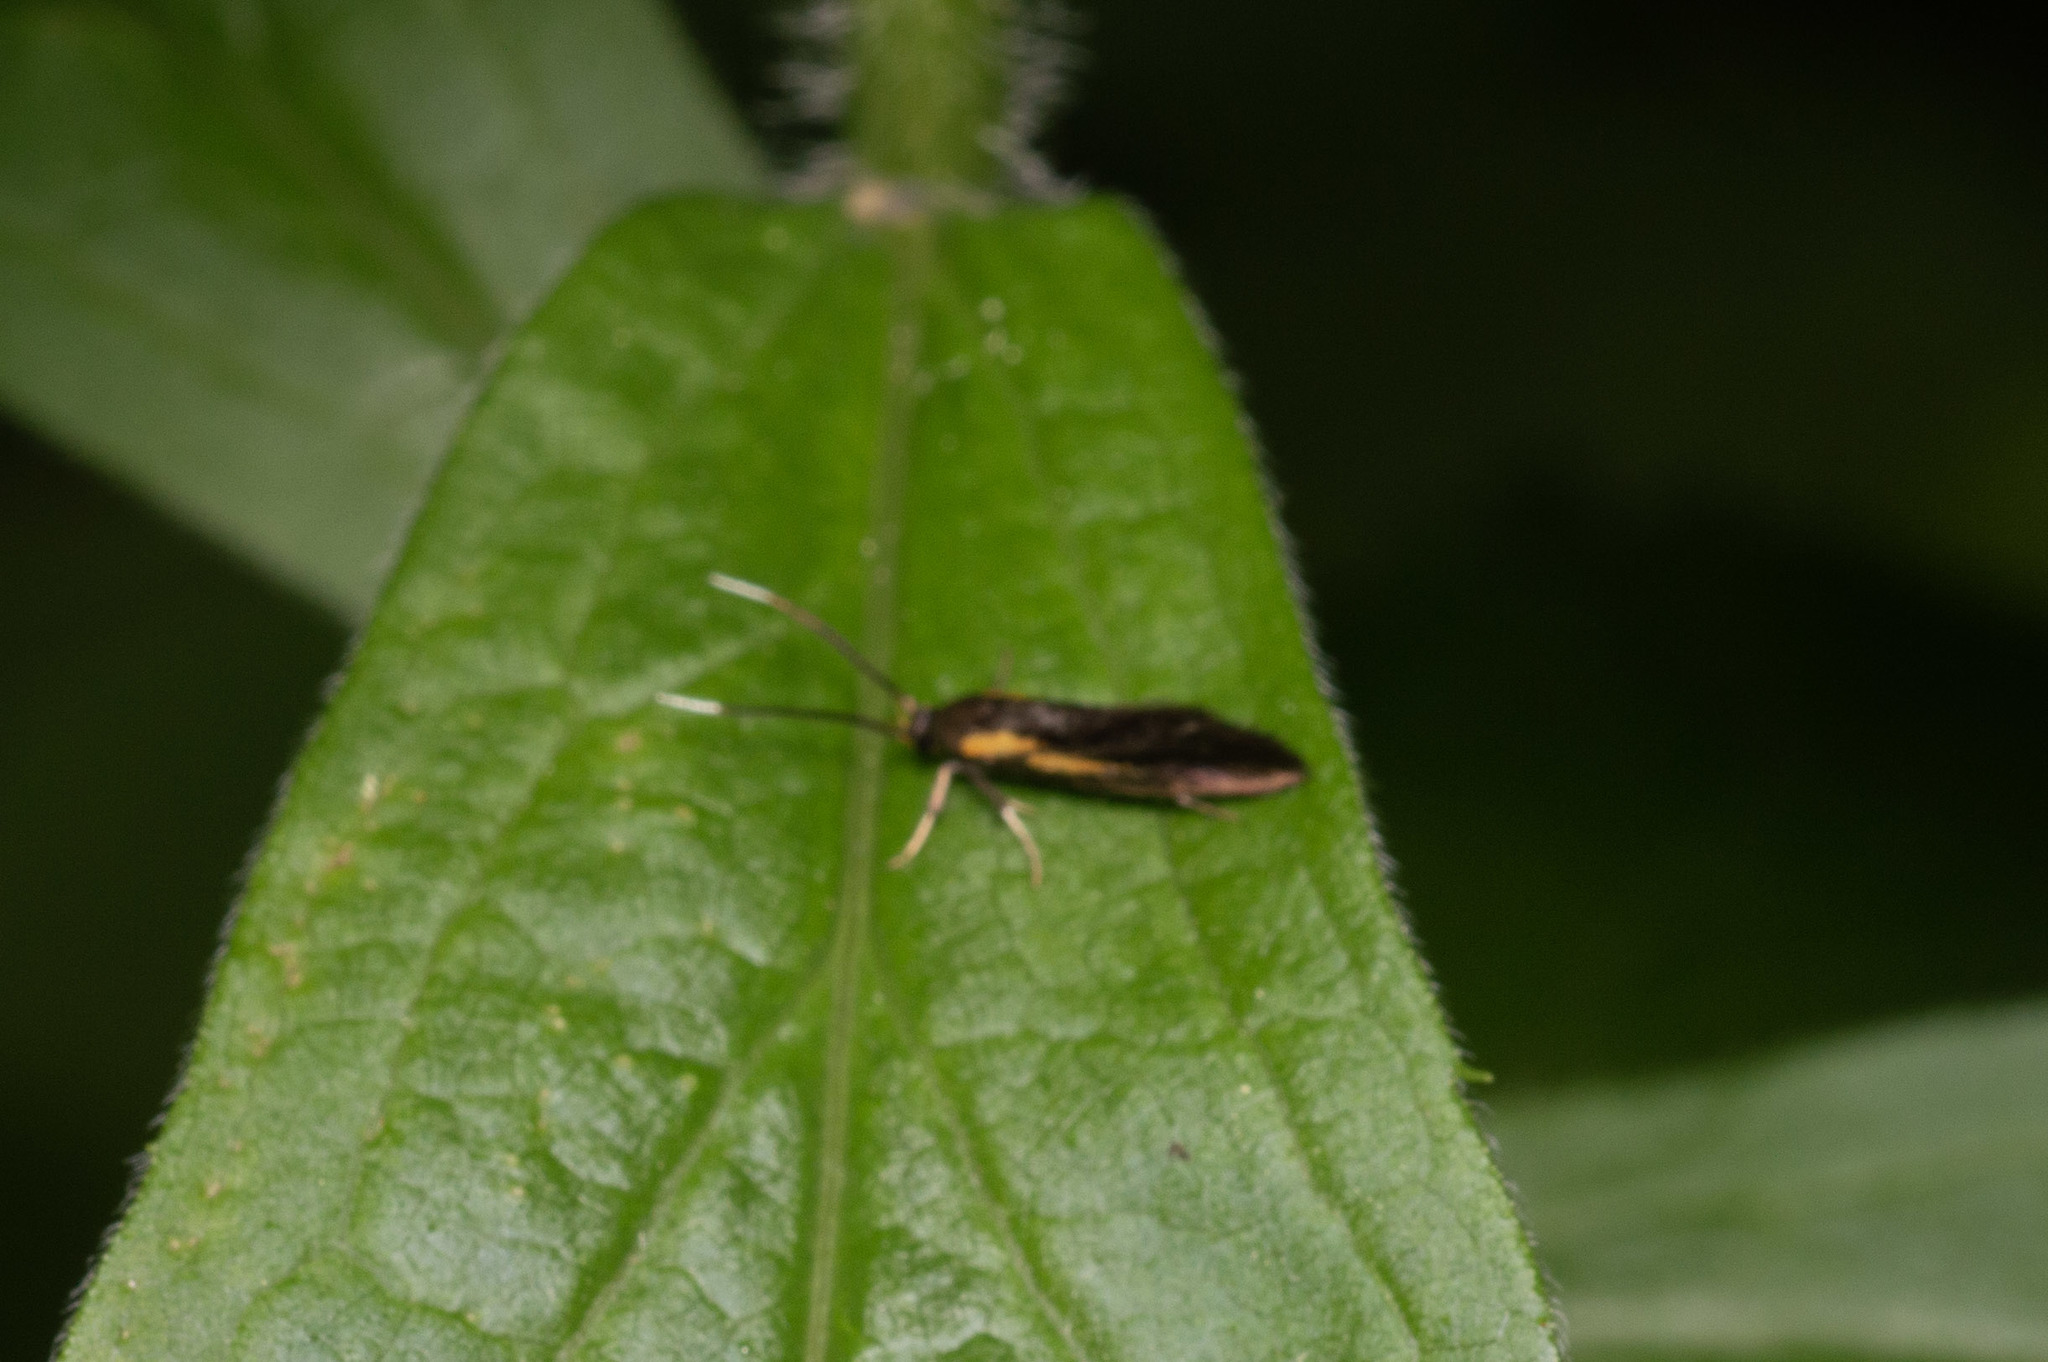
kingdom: Animalia
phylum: Arthropoda
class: Insecta
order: Lepidoptera
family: Oecophoridae
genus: Mathildana
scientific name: Mathildana newmanella
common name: Newman's mathildana moth
